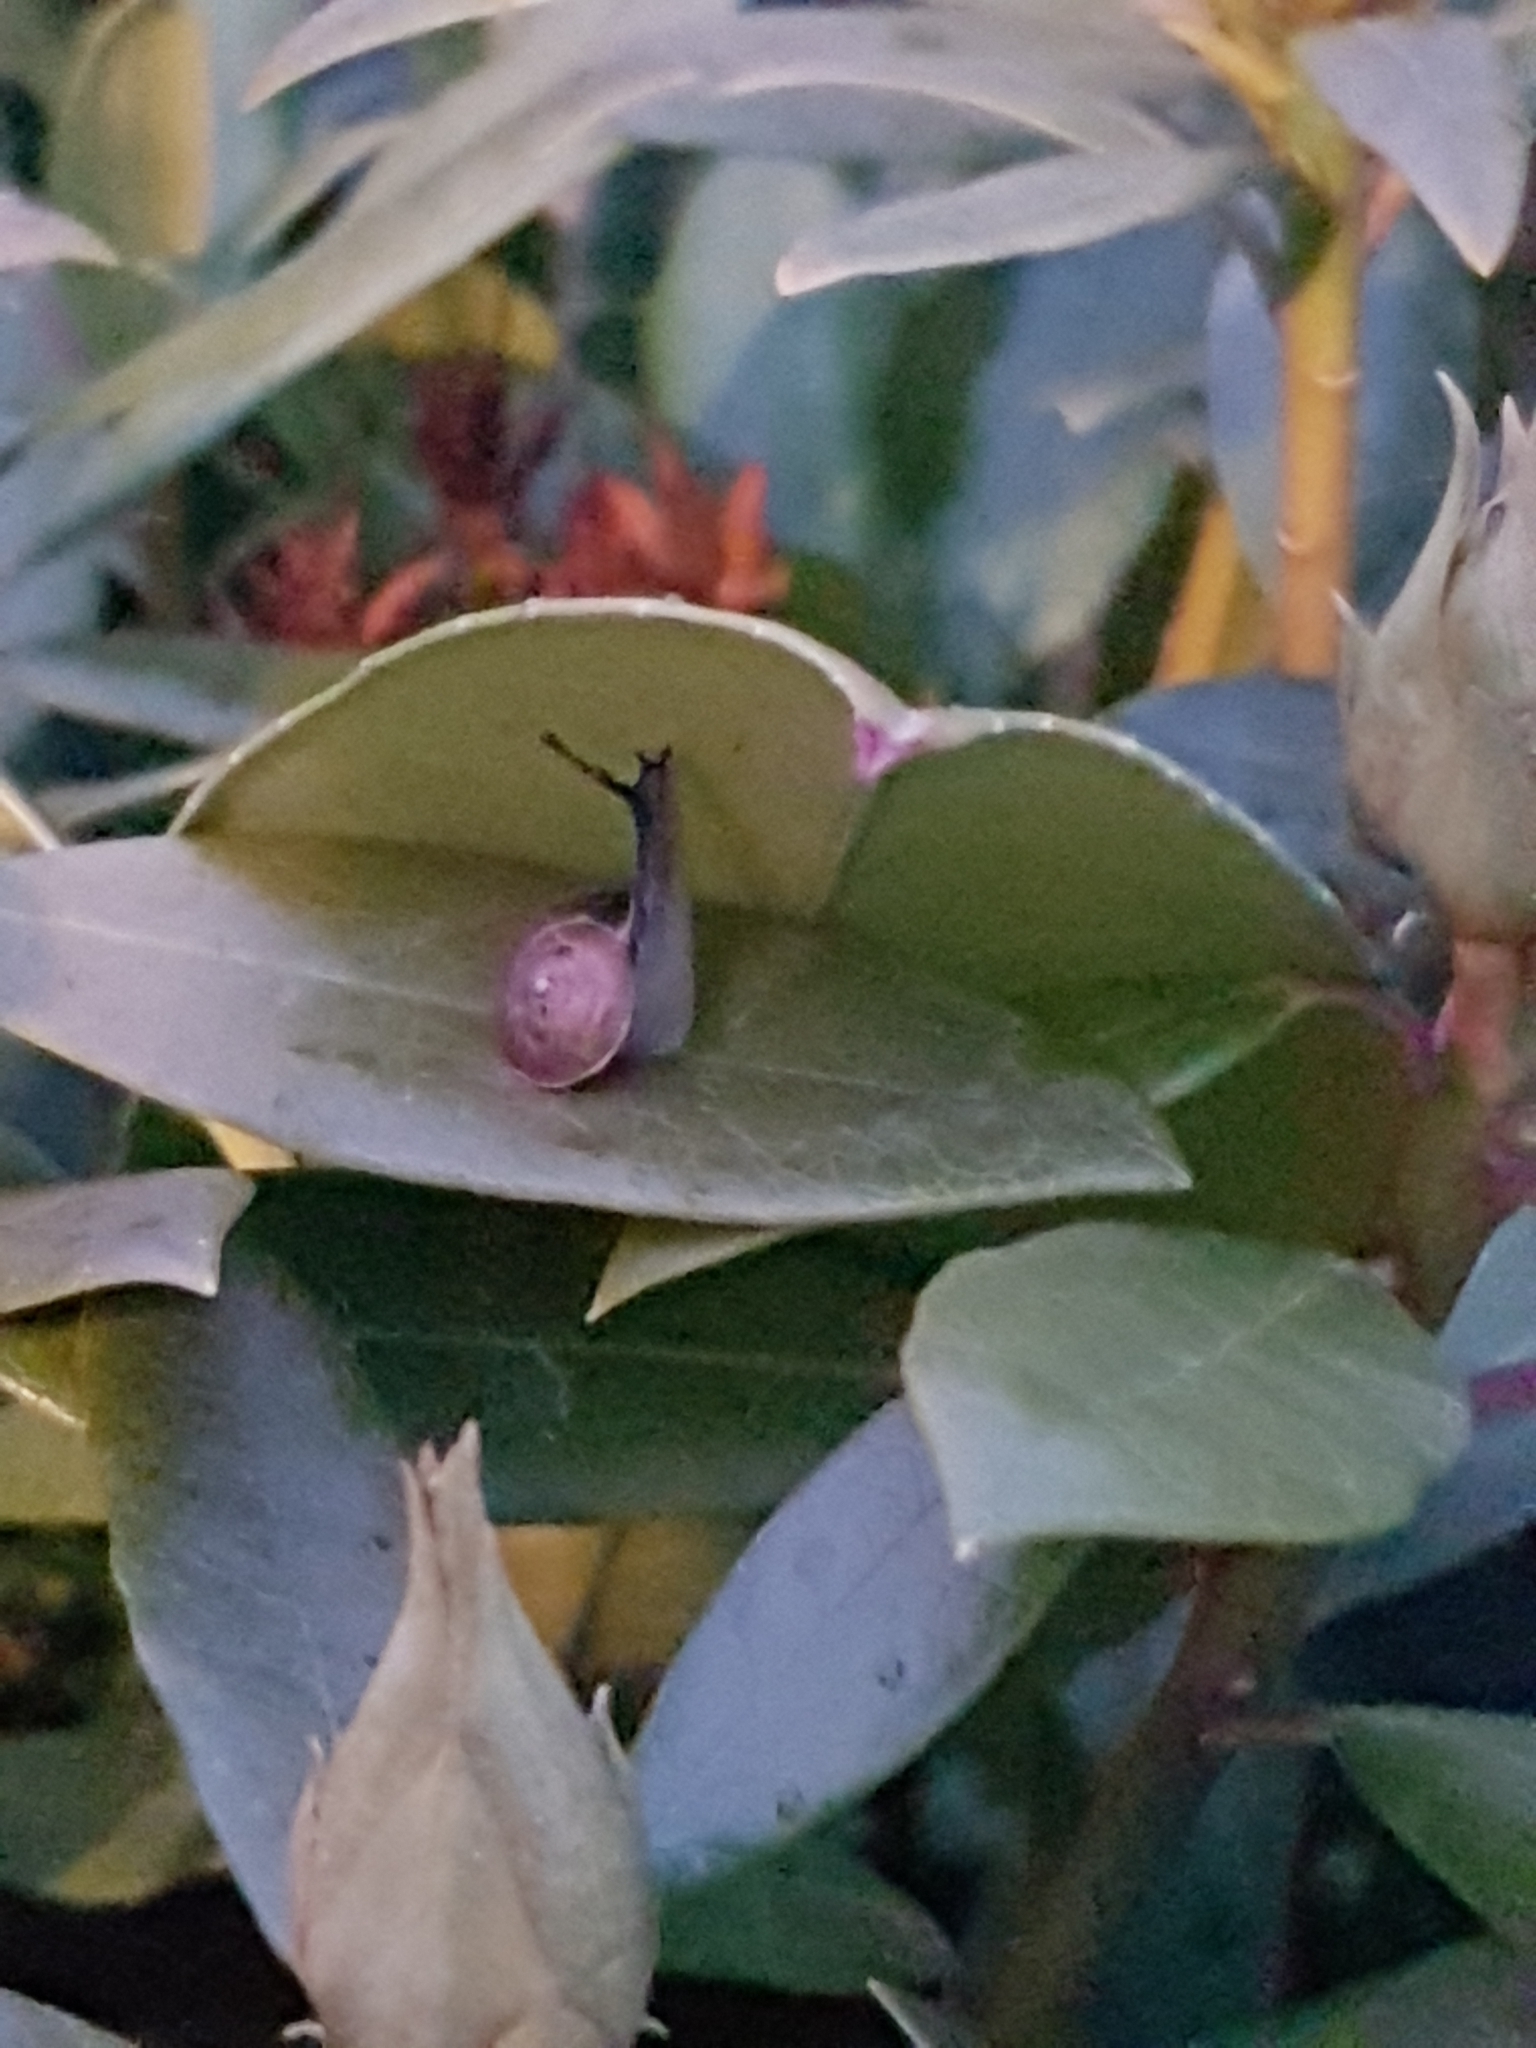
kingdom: Animalia
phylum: Mollusca
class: Gastropoda
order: Stylommatophora
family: Hygromiidae
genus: Hygromia
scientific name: Hygromia cinctella
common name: Girdled snail
